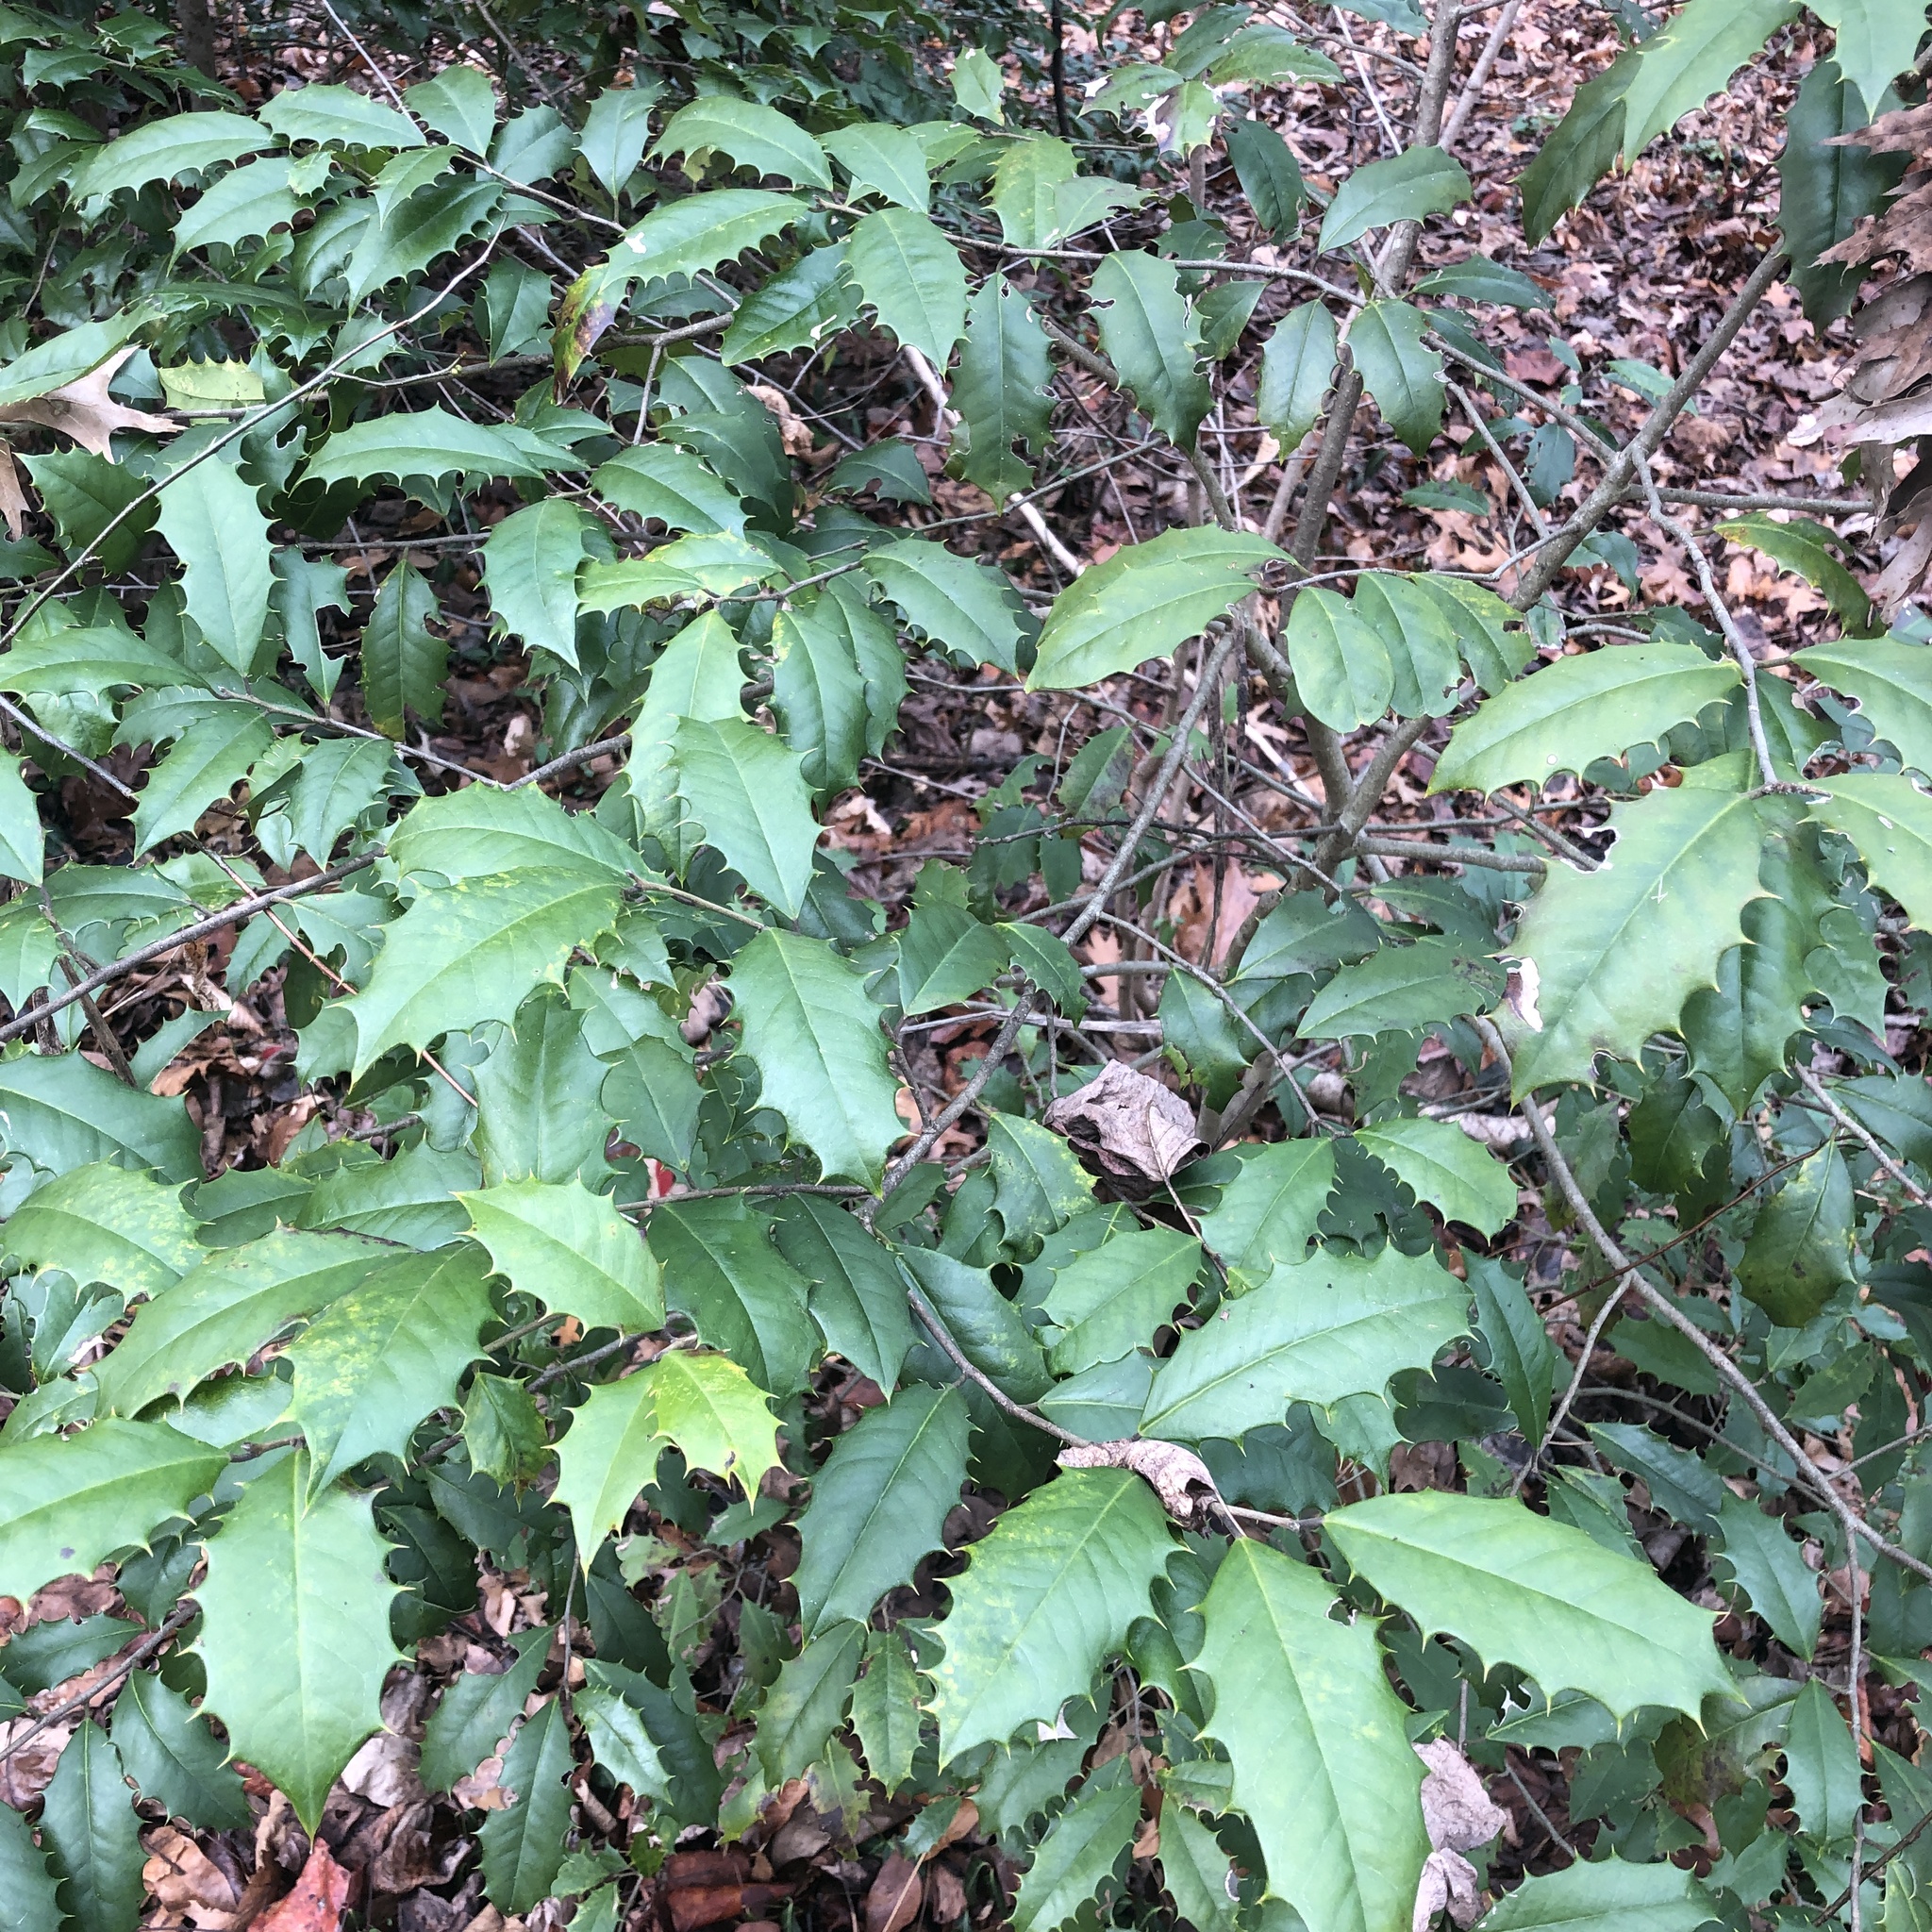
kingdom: Plantae
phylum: Tracheophyta
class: Magnoliopsida
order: Aquifoliales
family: Aquifoliaceae
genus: Ilex
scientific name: Ilex opaca
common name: American holly
